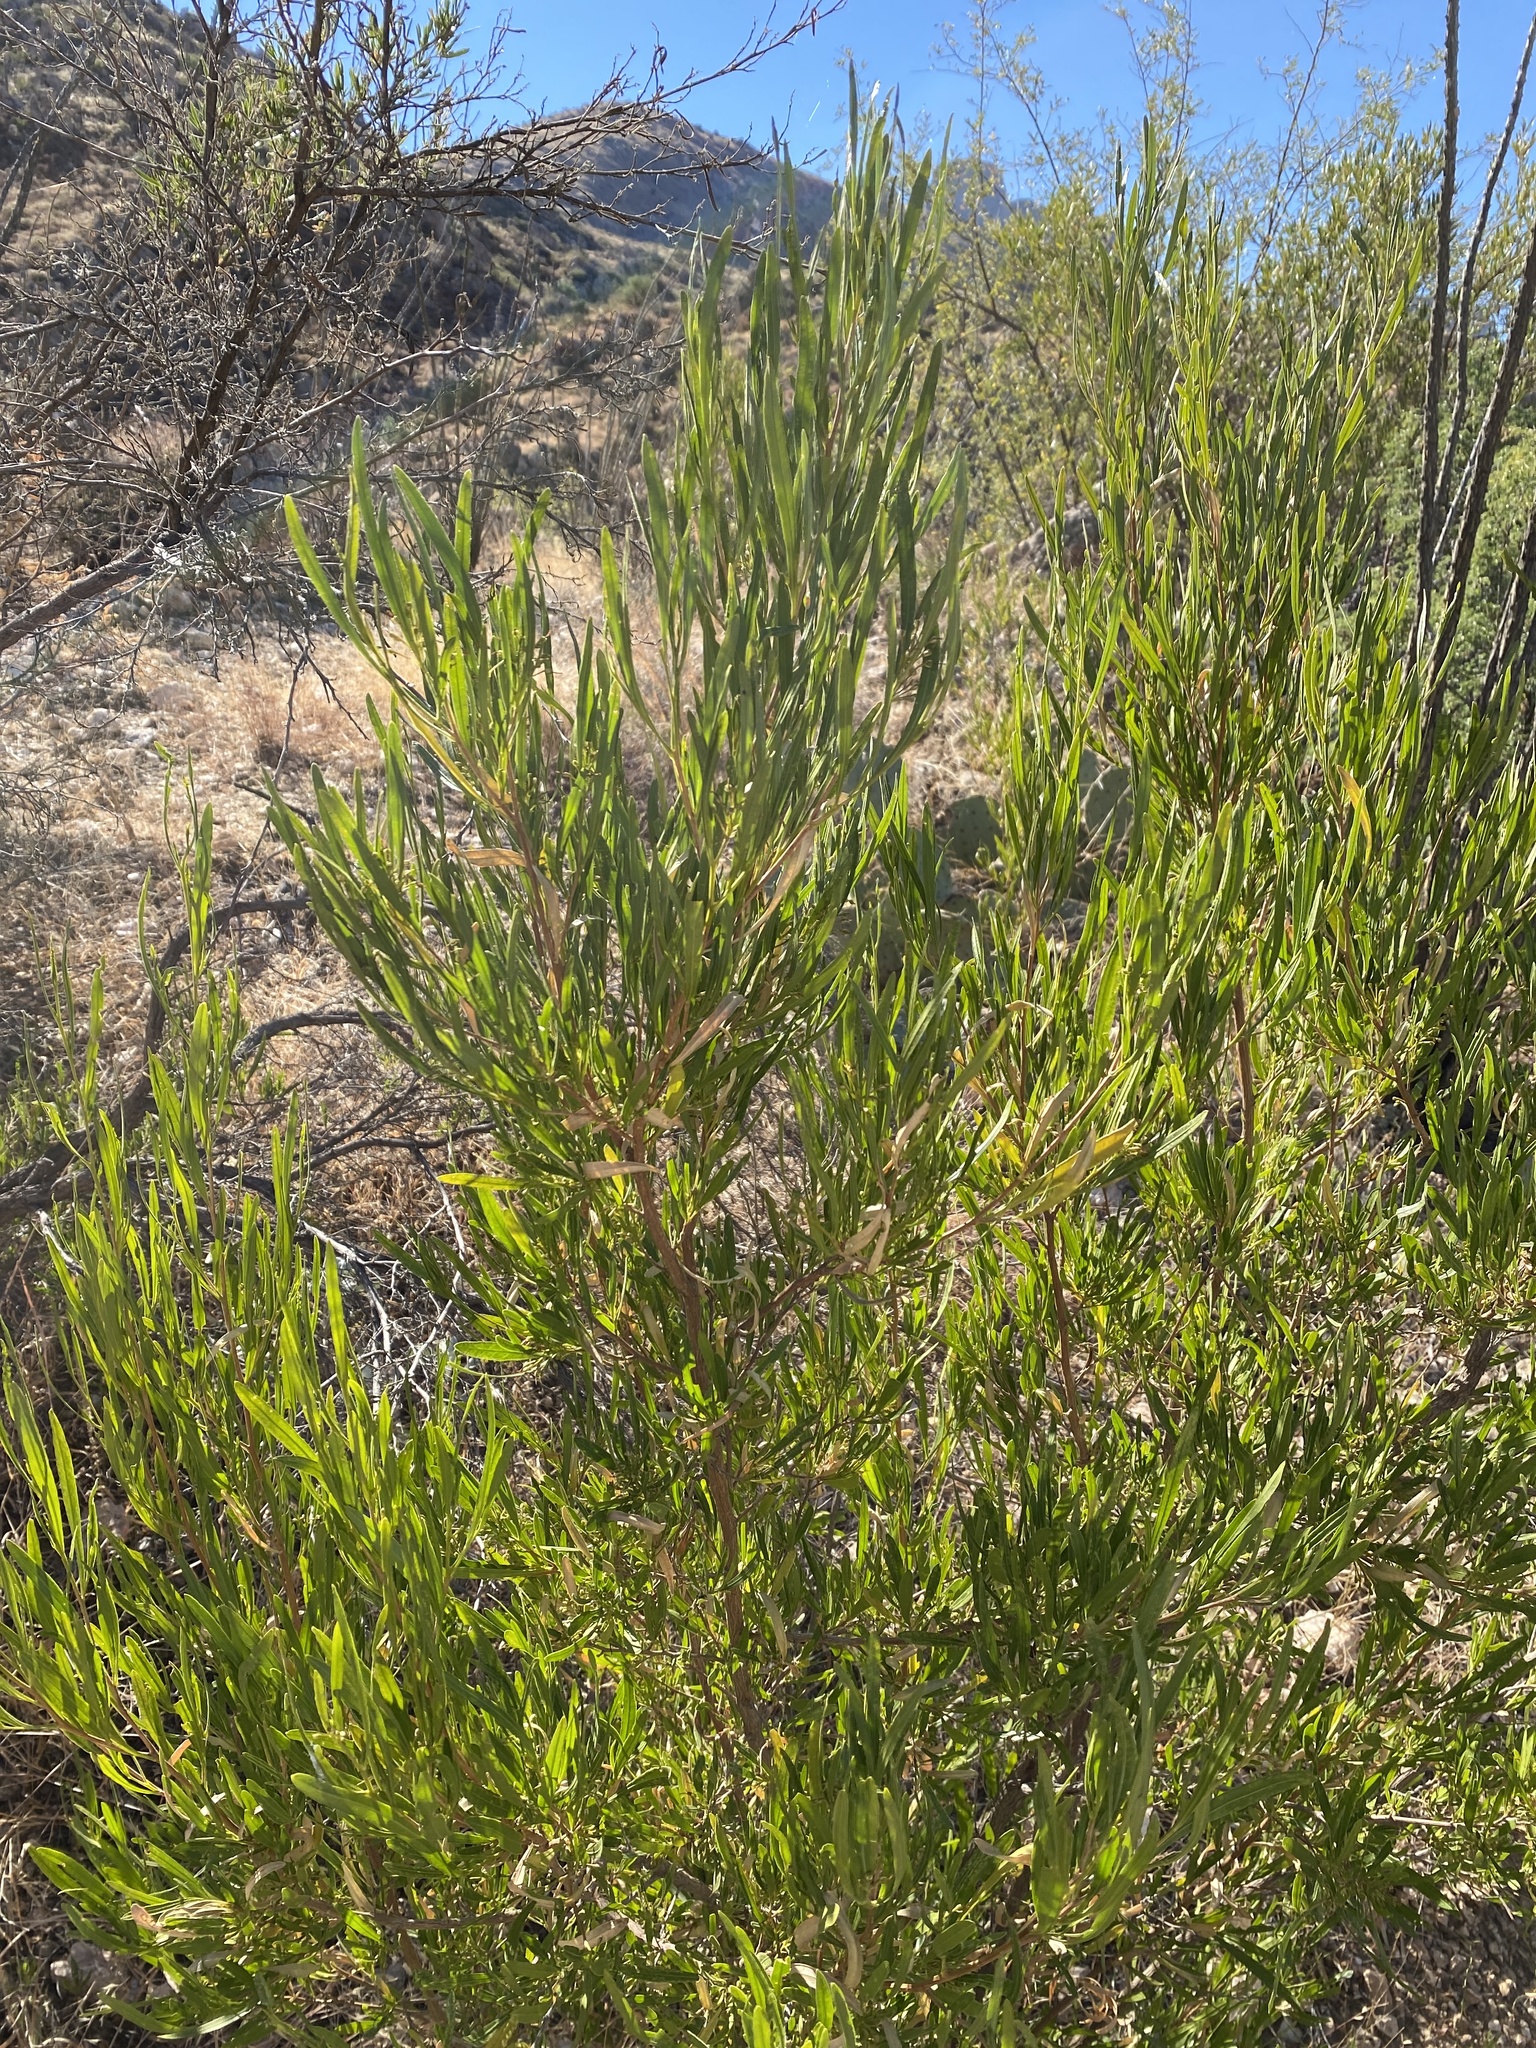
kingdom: Plantae
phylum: Tracheophyta
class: Magnoliopsida
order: Sapindales
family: Sapindaceae
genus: Dodonaea
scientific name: Dodonaea viscosa
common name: Hopbush
